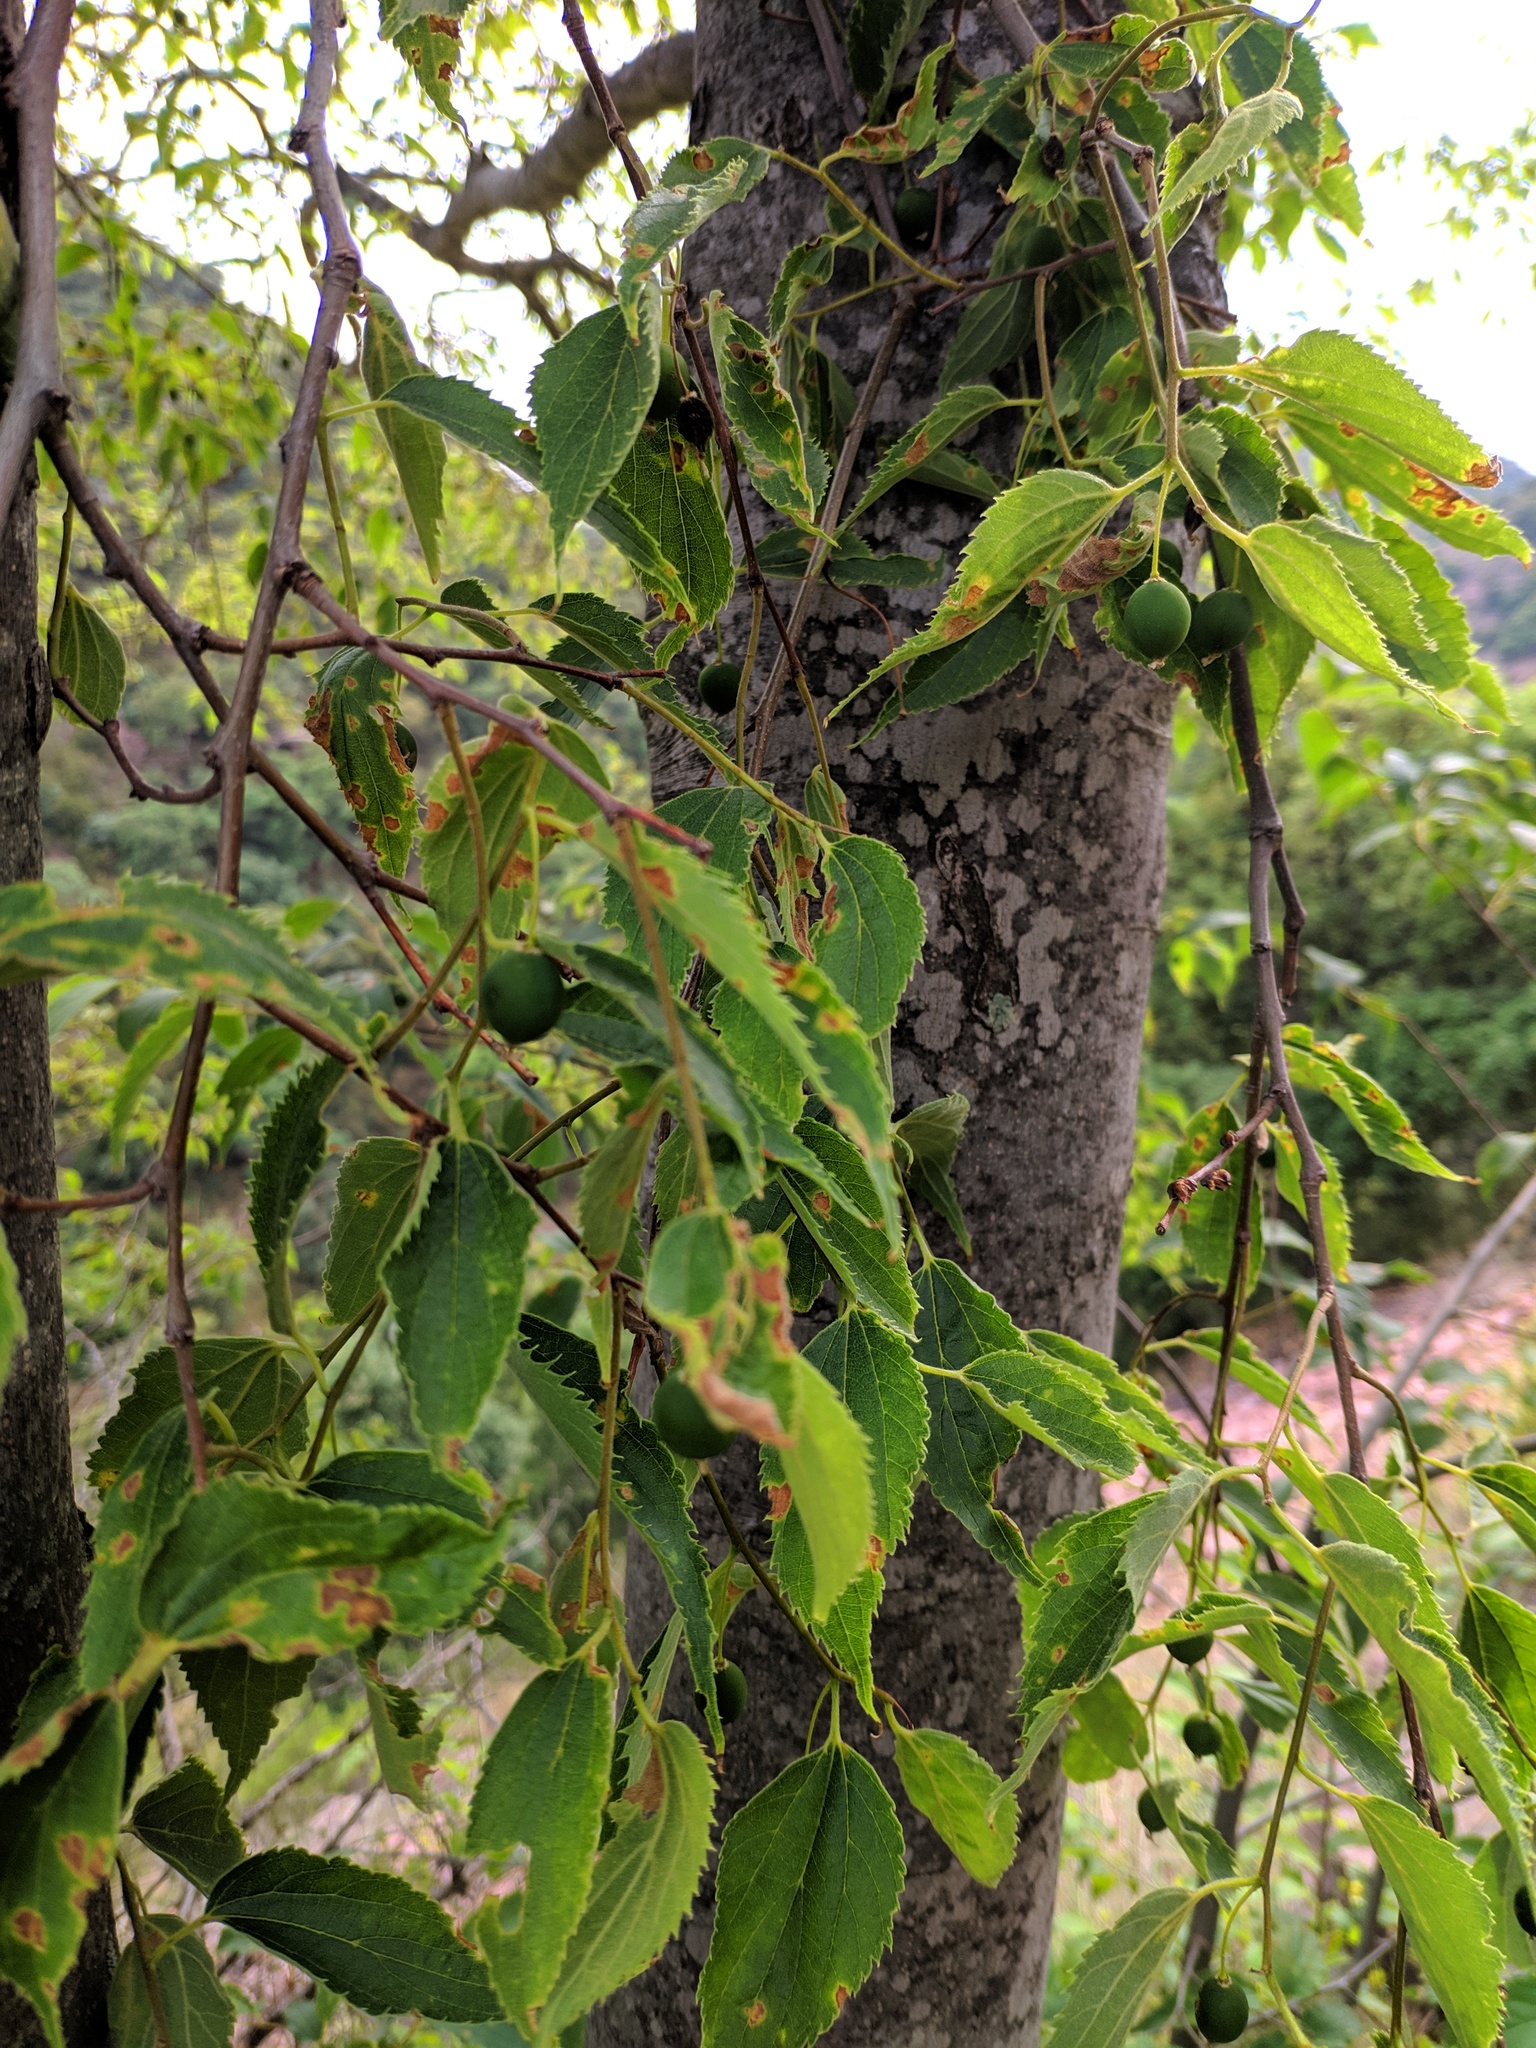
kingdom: Plantae
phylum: Tracheophyta
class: Magnoliopsida
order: Rosales
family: Cannabaceae
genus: Celtis
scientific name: Celtis australis
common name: European hackberry
